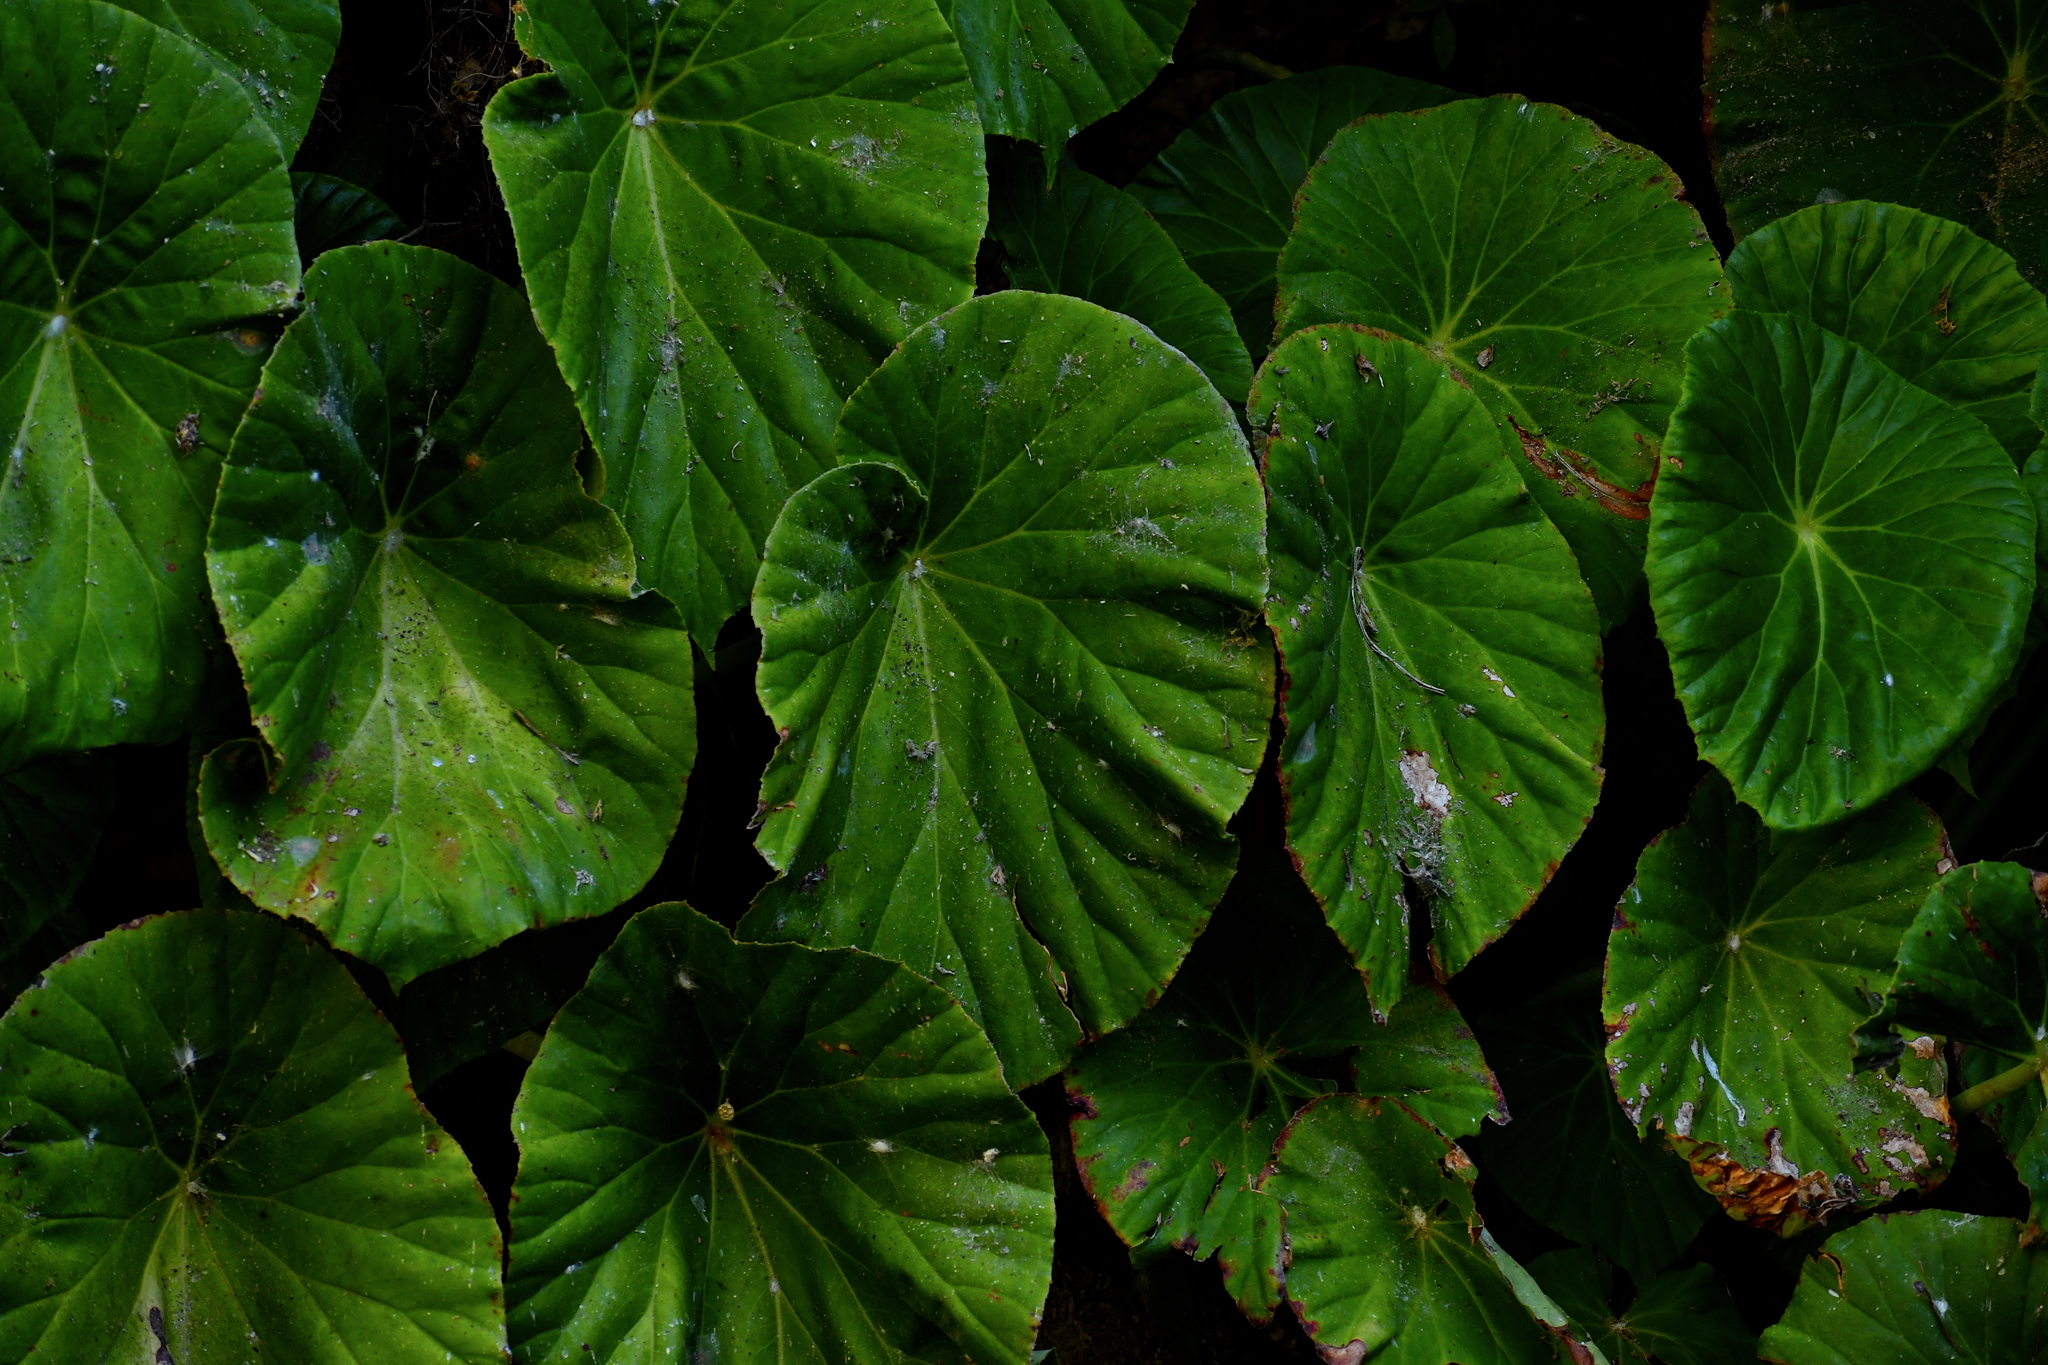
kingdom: Plantae
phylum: Tracheophyta
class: Magnoliopsida
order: Cucurbitales
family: Begoniaceae
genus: Begonia
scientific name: Begonia nelumbiifolia
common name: Lilypad begonia
